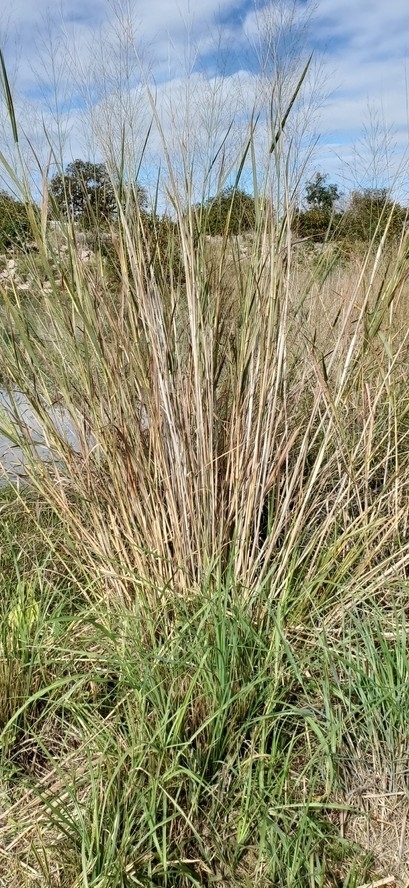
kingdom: Plantae
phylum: Tracheophyta
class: Liliopsida
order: Poales
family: Poaceae
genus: Panicum
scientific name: Panicum virgatum
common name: Switchgrass
